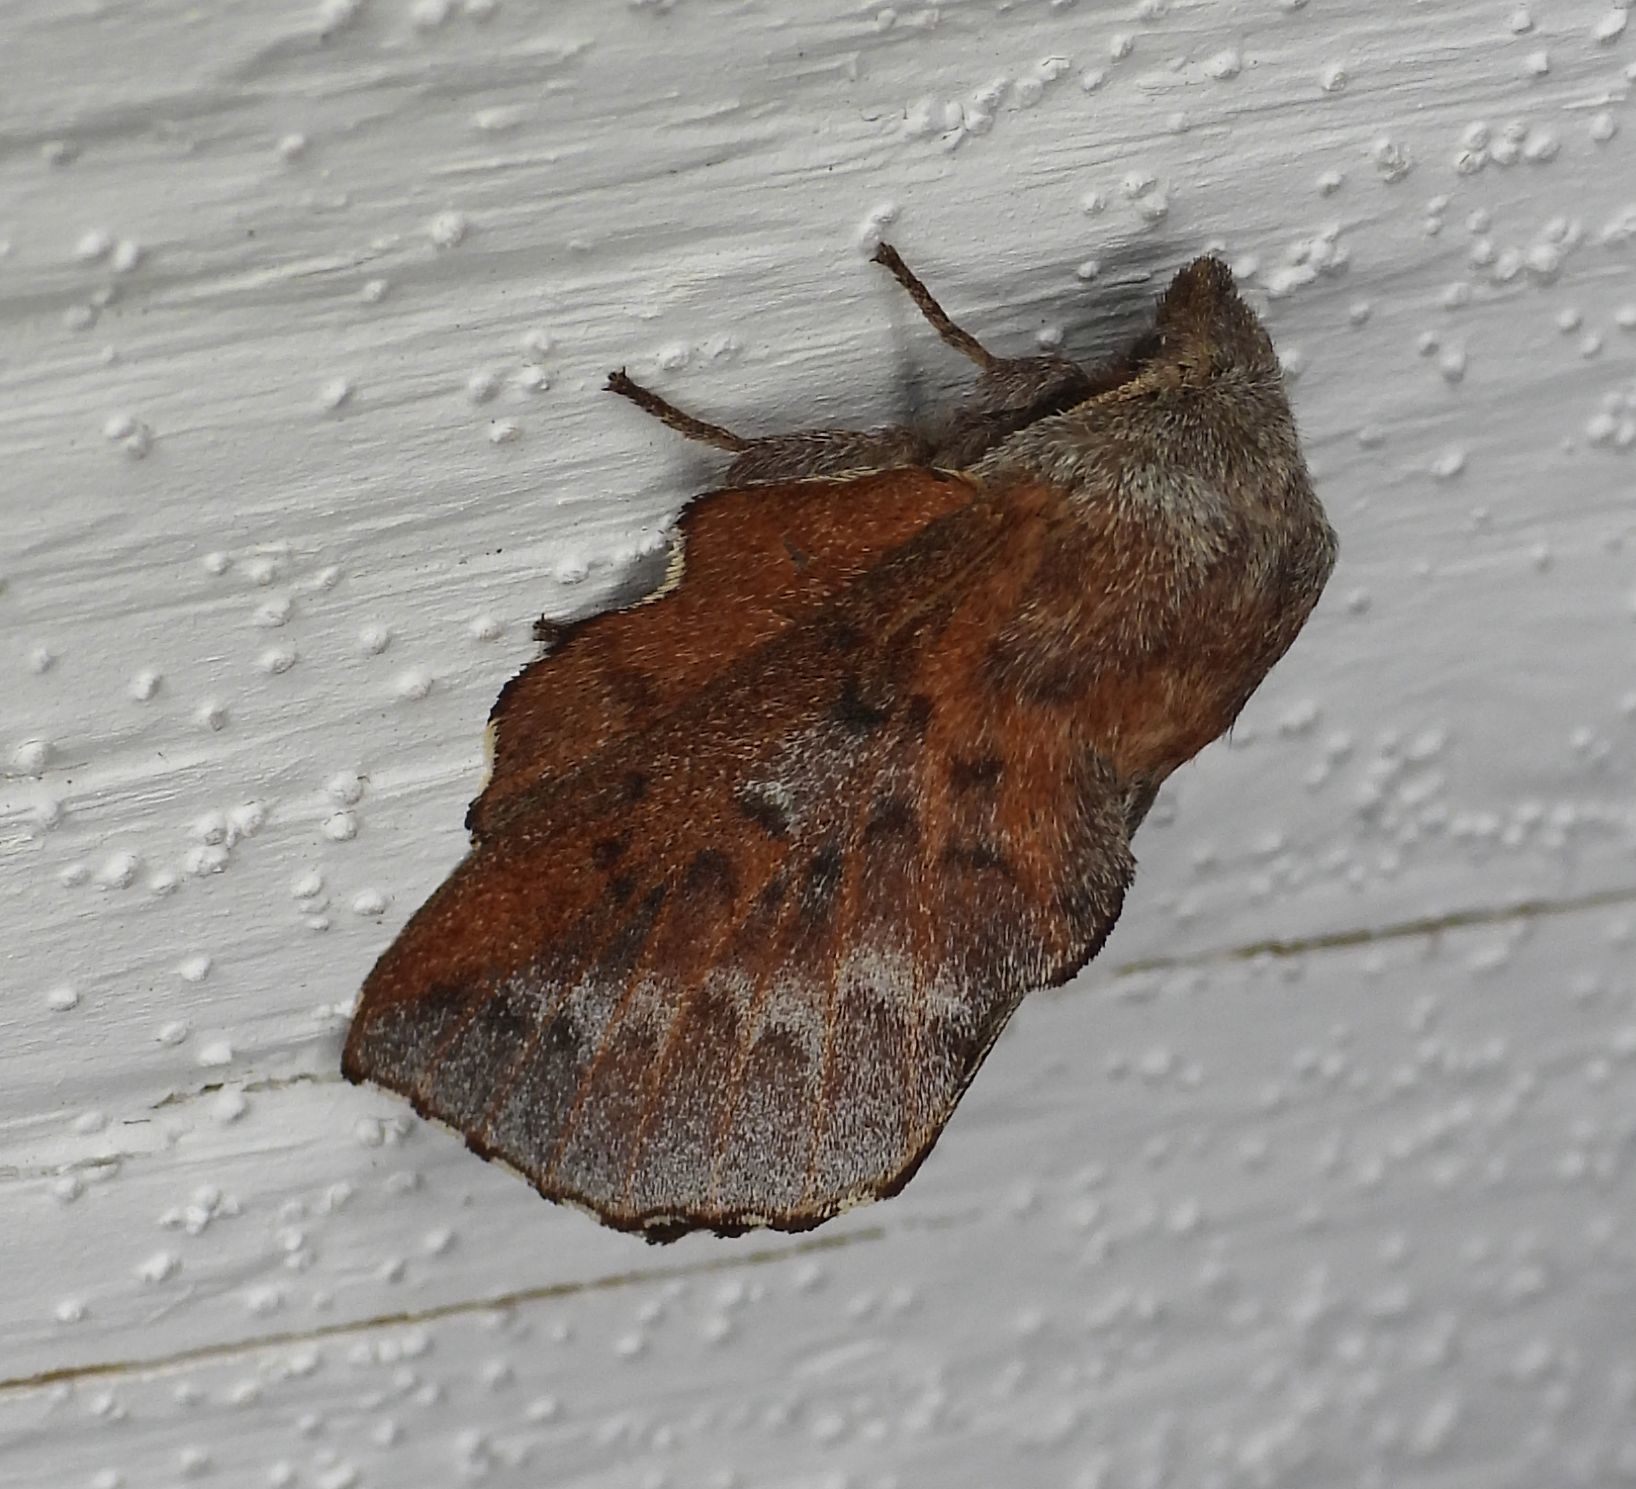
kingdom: Animalia
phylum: Arthropoda
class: Insecta
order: Lepidoptera
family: Lasiocampidae
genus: Phyllodesma
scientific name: Phyllodesma americana
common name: American lappet moth
